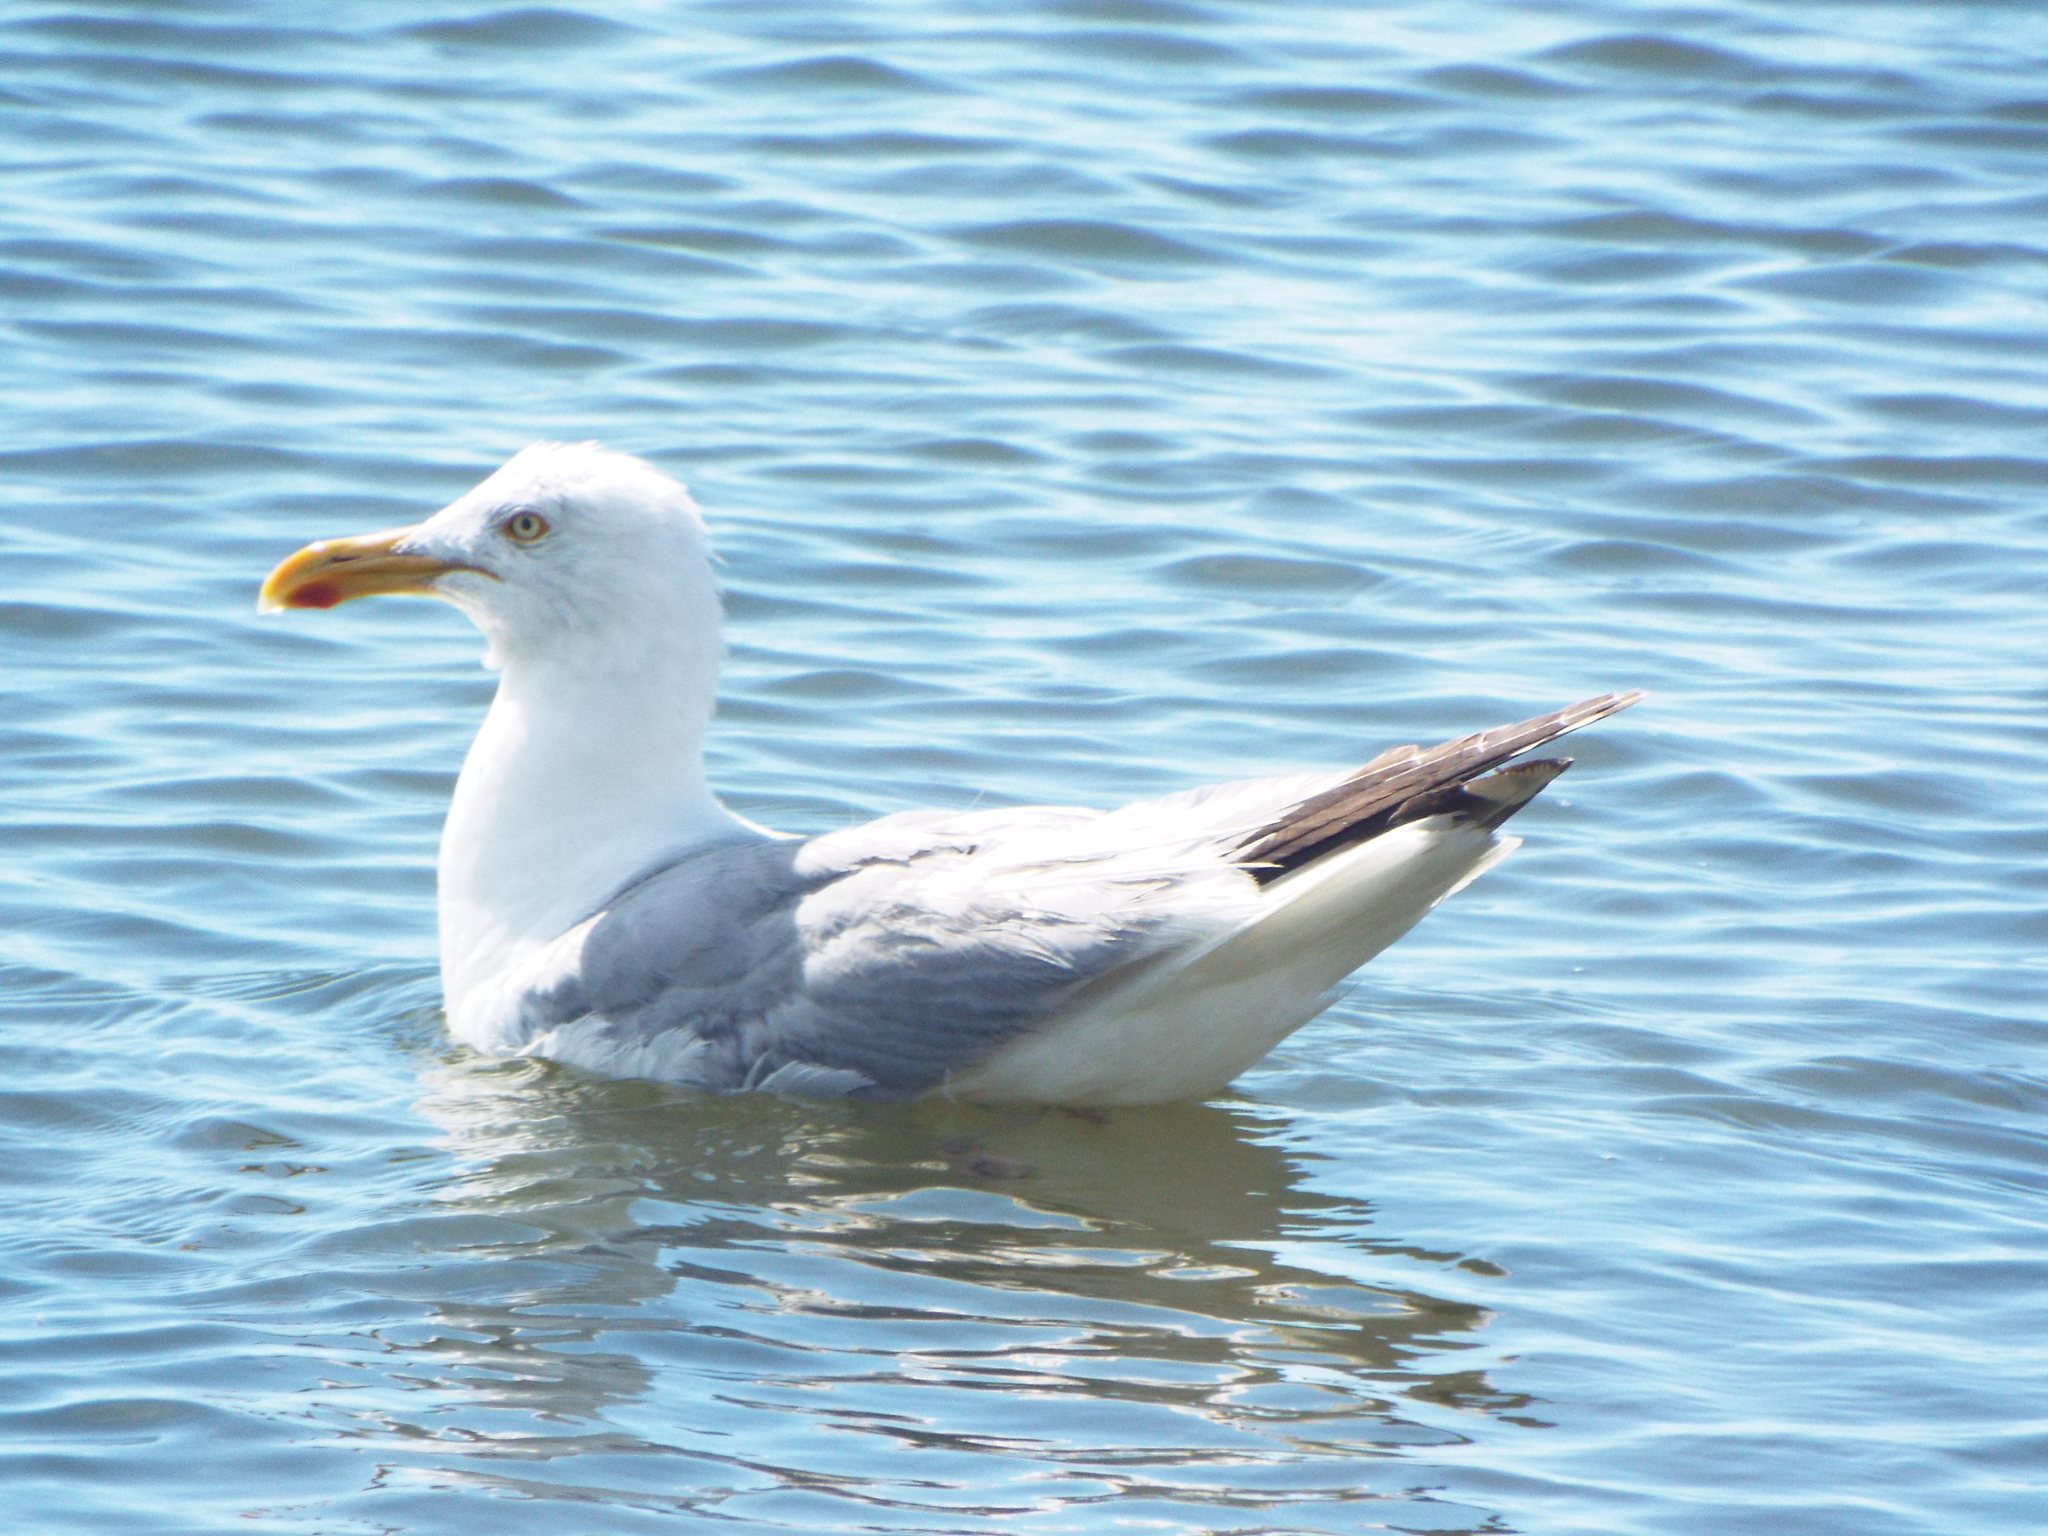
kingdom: Animalia
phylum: Chordata
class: Aves
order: Charadriiformes
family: Laridae
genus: Larus
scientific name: Larus argentatus
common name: Herring gull
